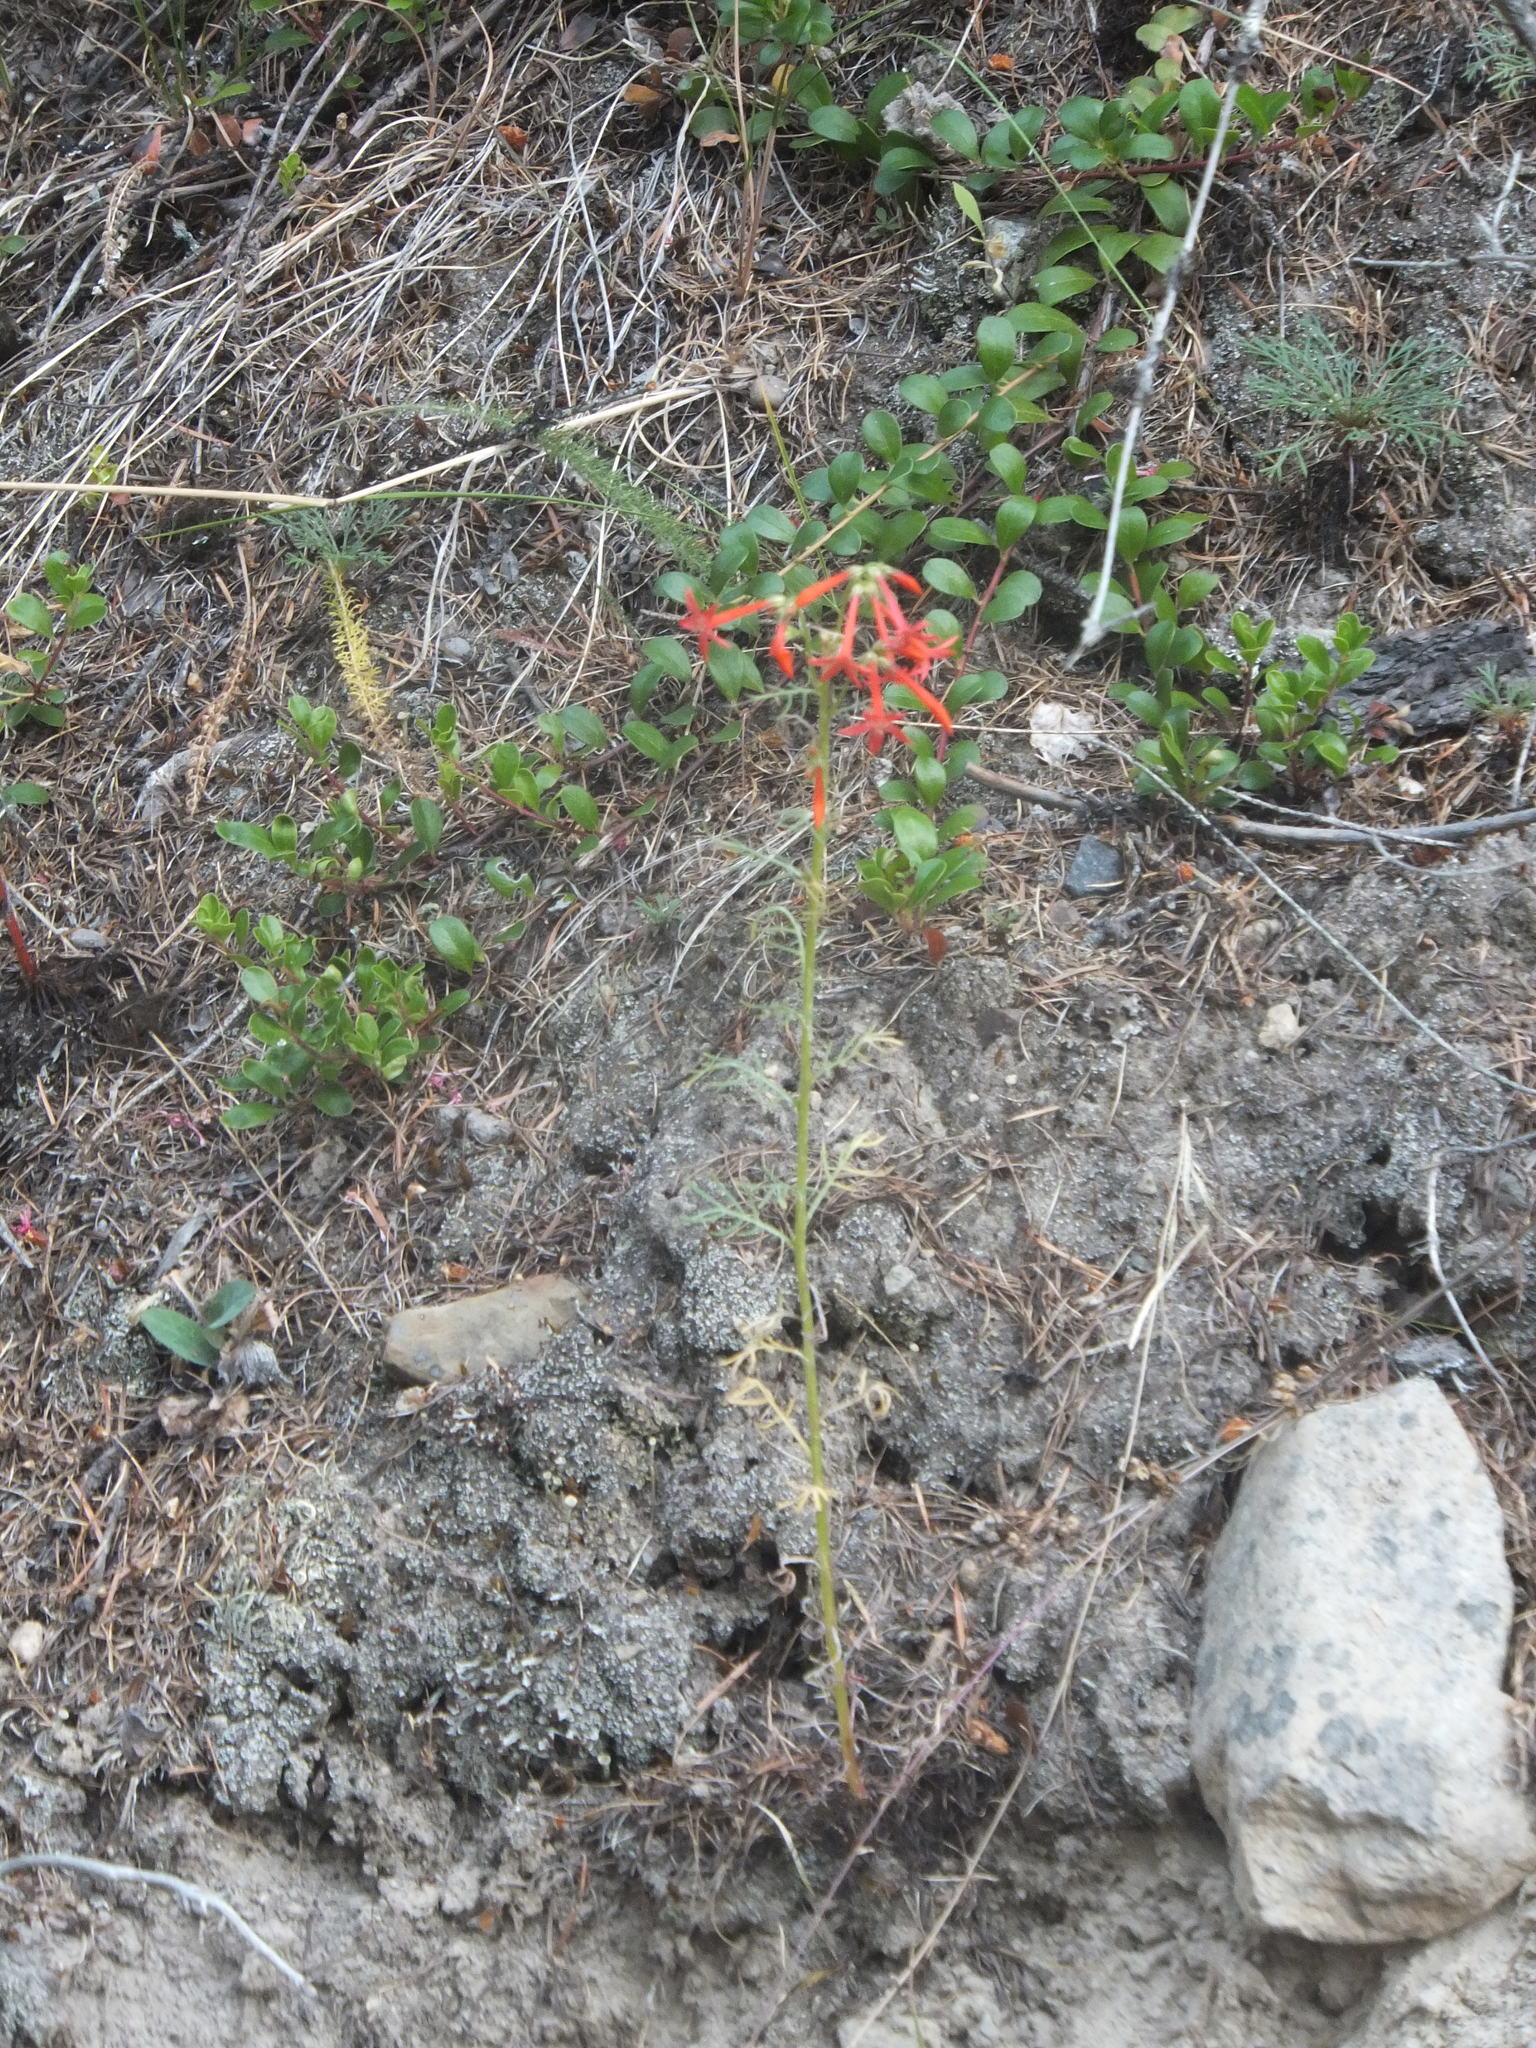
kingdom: Plantae
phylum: Tracheophyta
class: Magnoliopsida
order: Ericales
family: Polemoniaceae
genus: Ipomopsis
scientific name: Ipomopsis aggregata
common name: Scarlet gilia
